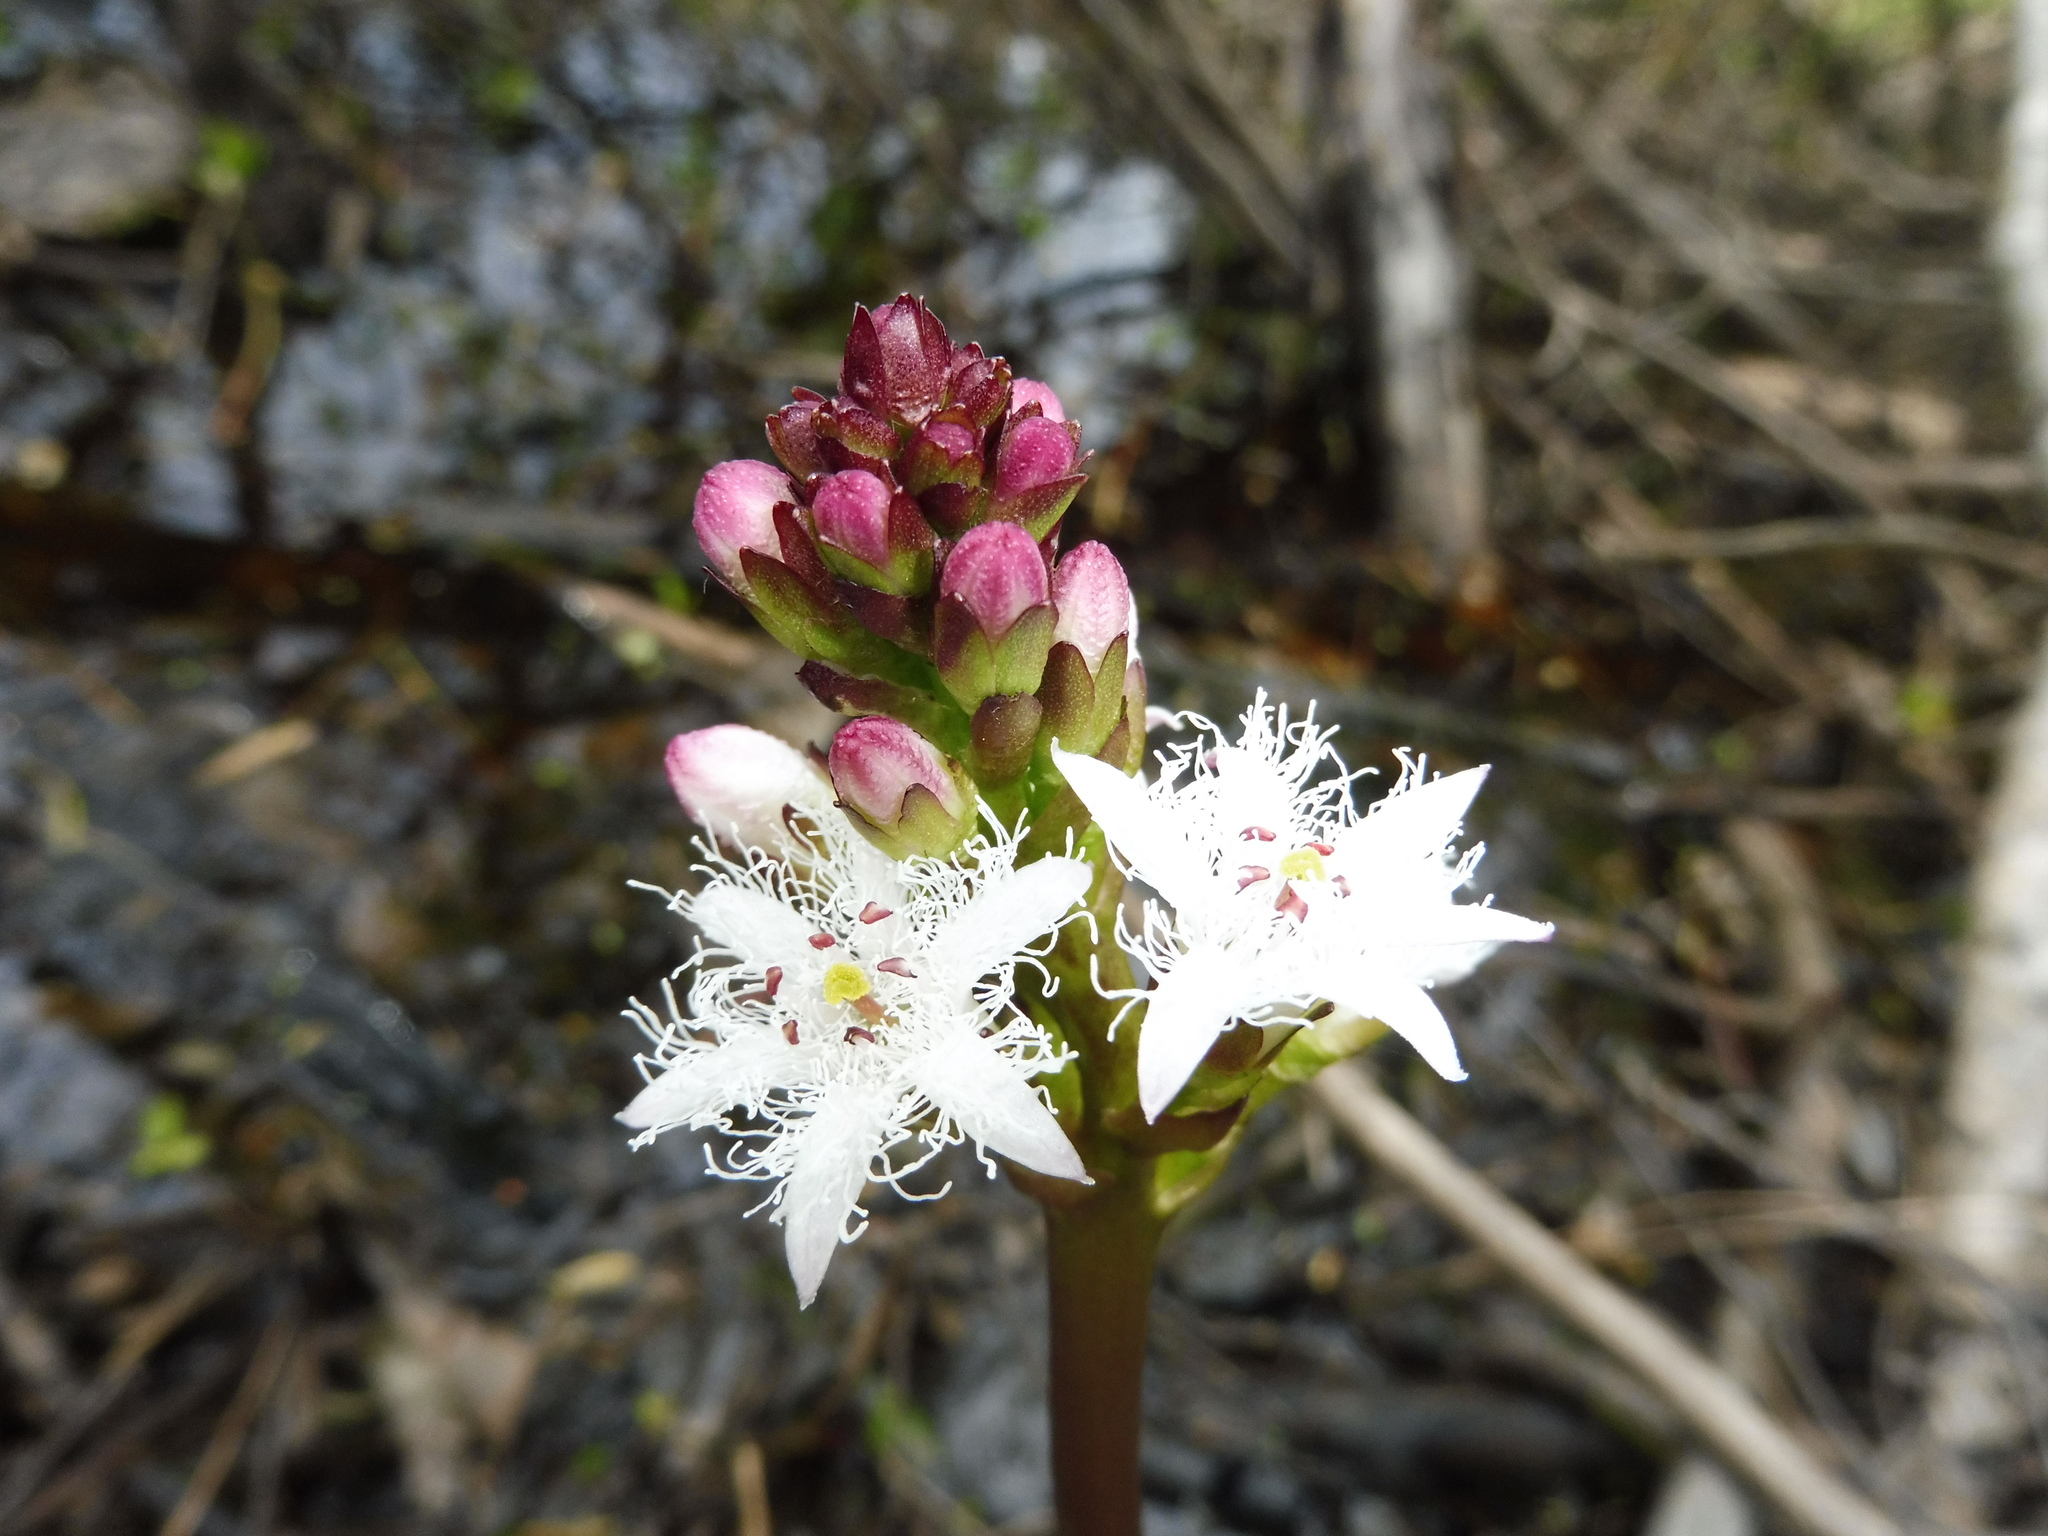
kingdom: Plantae
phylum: Tracheophyta
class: Magnoliopsida
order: Asterales
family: Menyanthaceae
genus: Menyanthes
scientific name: Menyanthes trifoliata
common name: Bogbean
